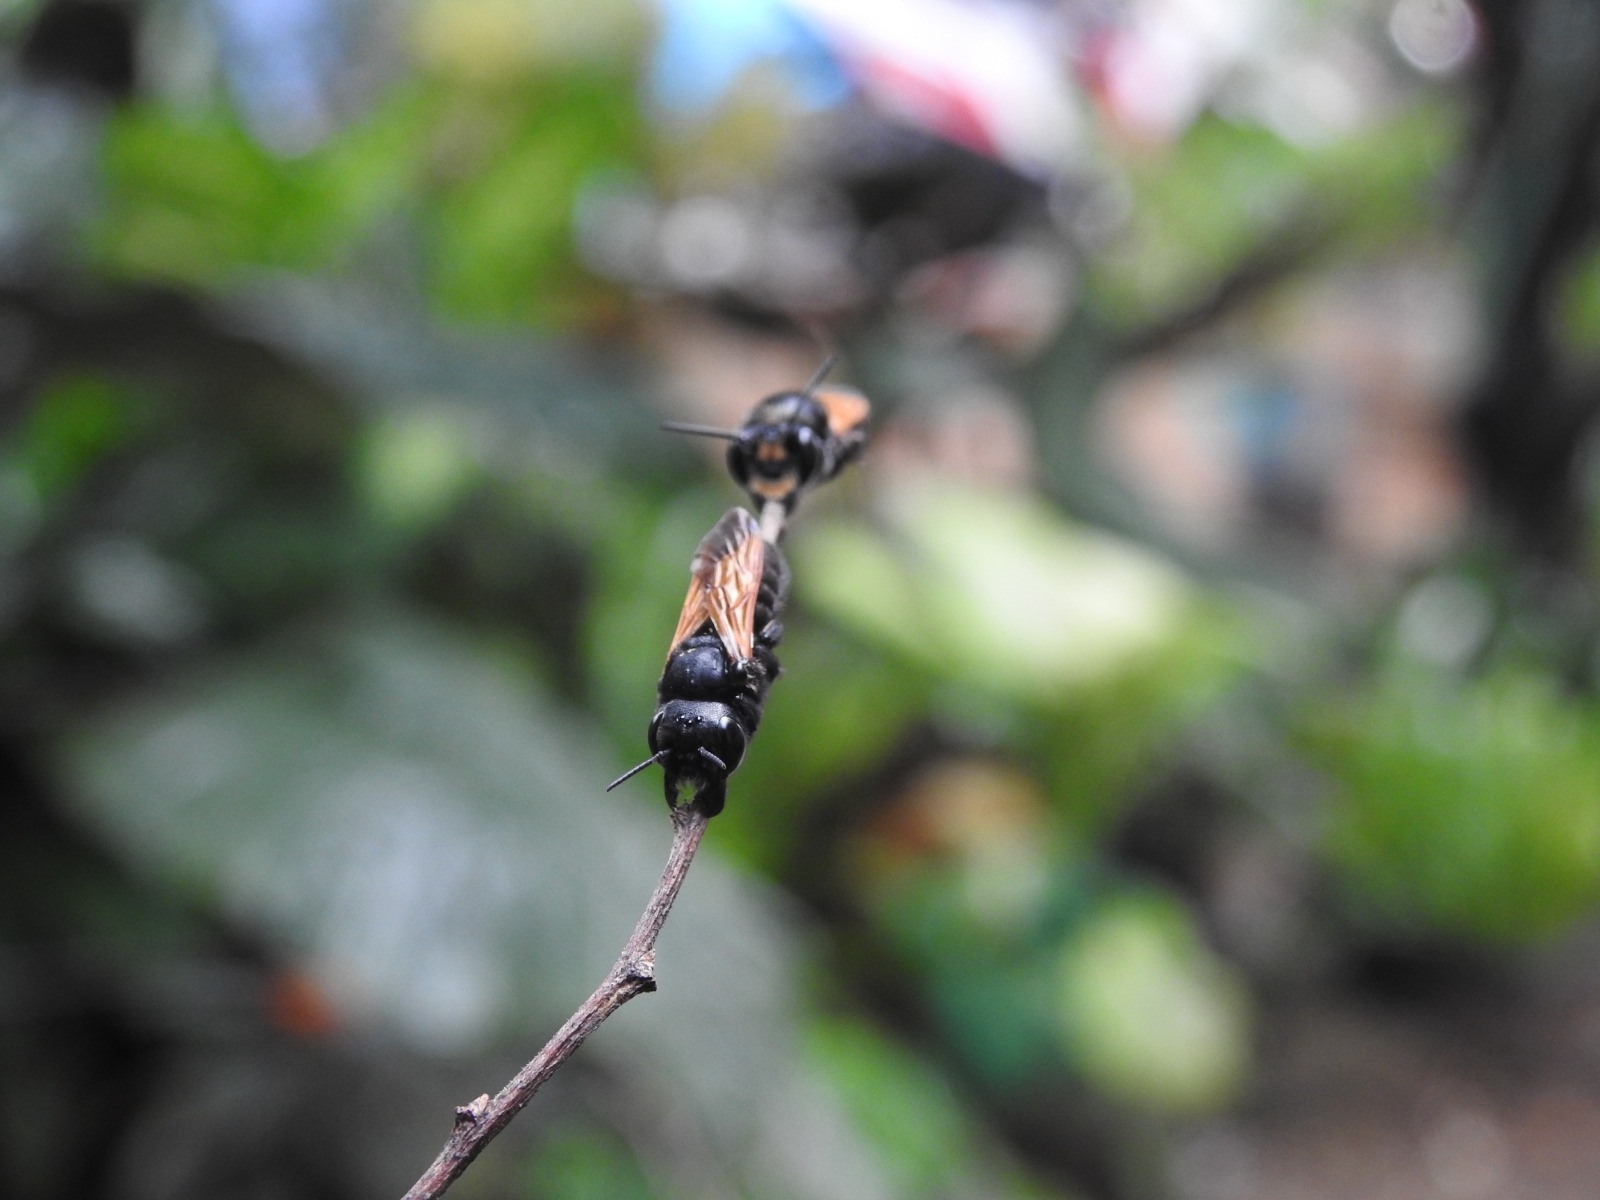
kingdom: Animalia
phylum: Arthropoda
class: Insecta
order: Hymenoptera
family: Megachilidae
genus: Megachile
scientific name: Megachile atrata
